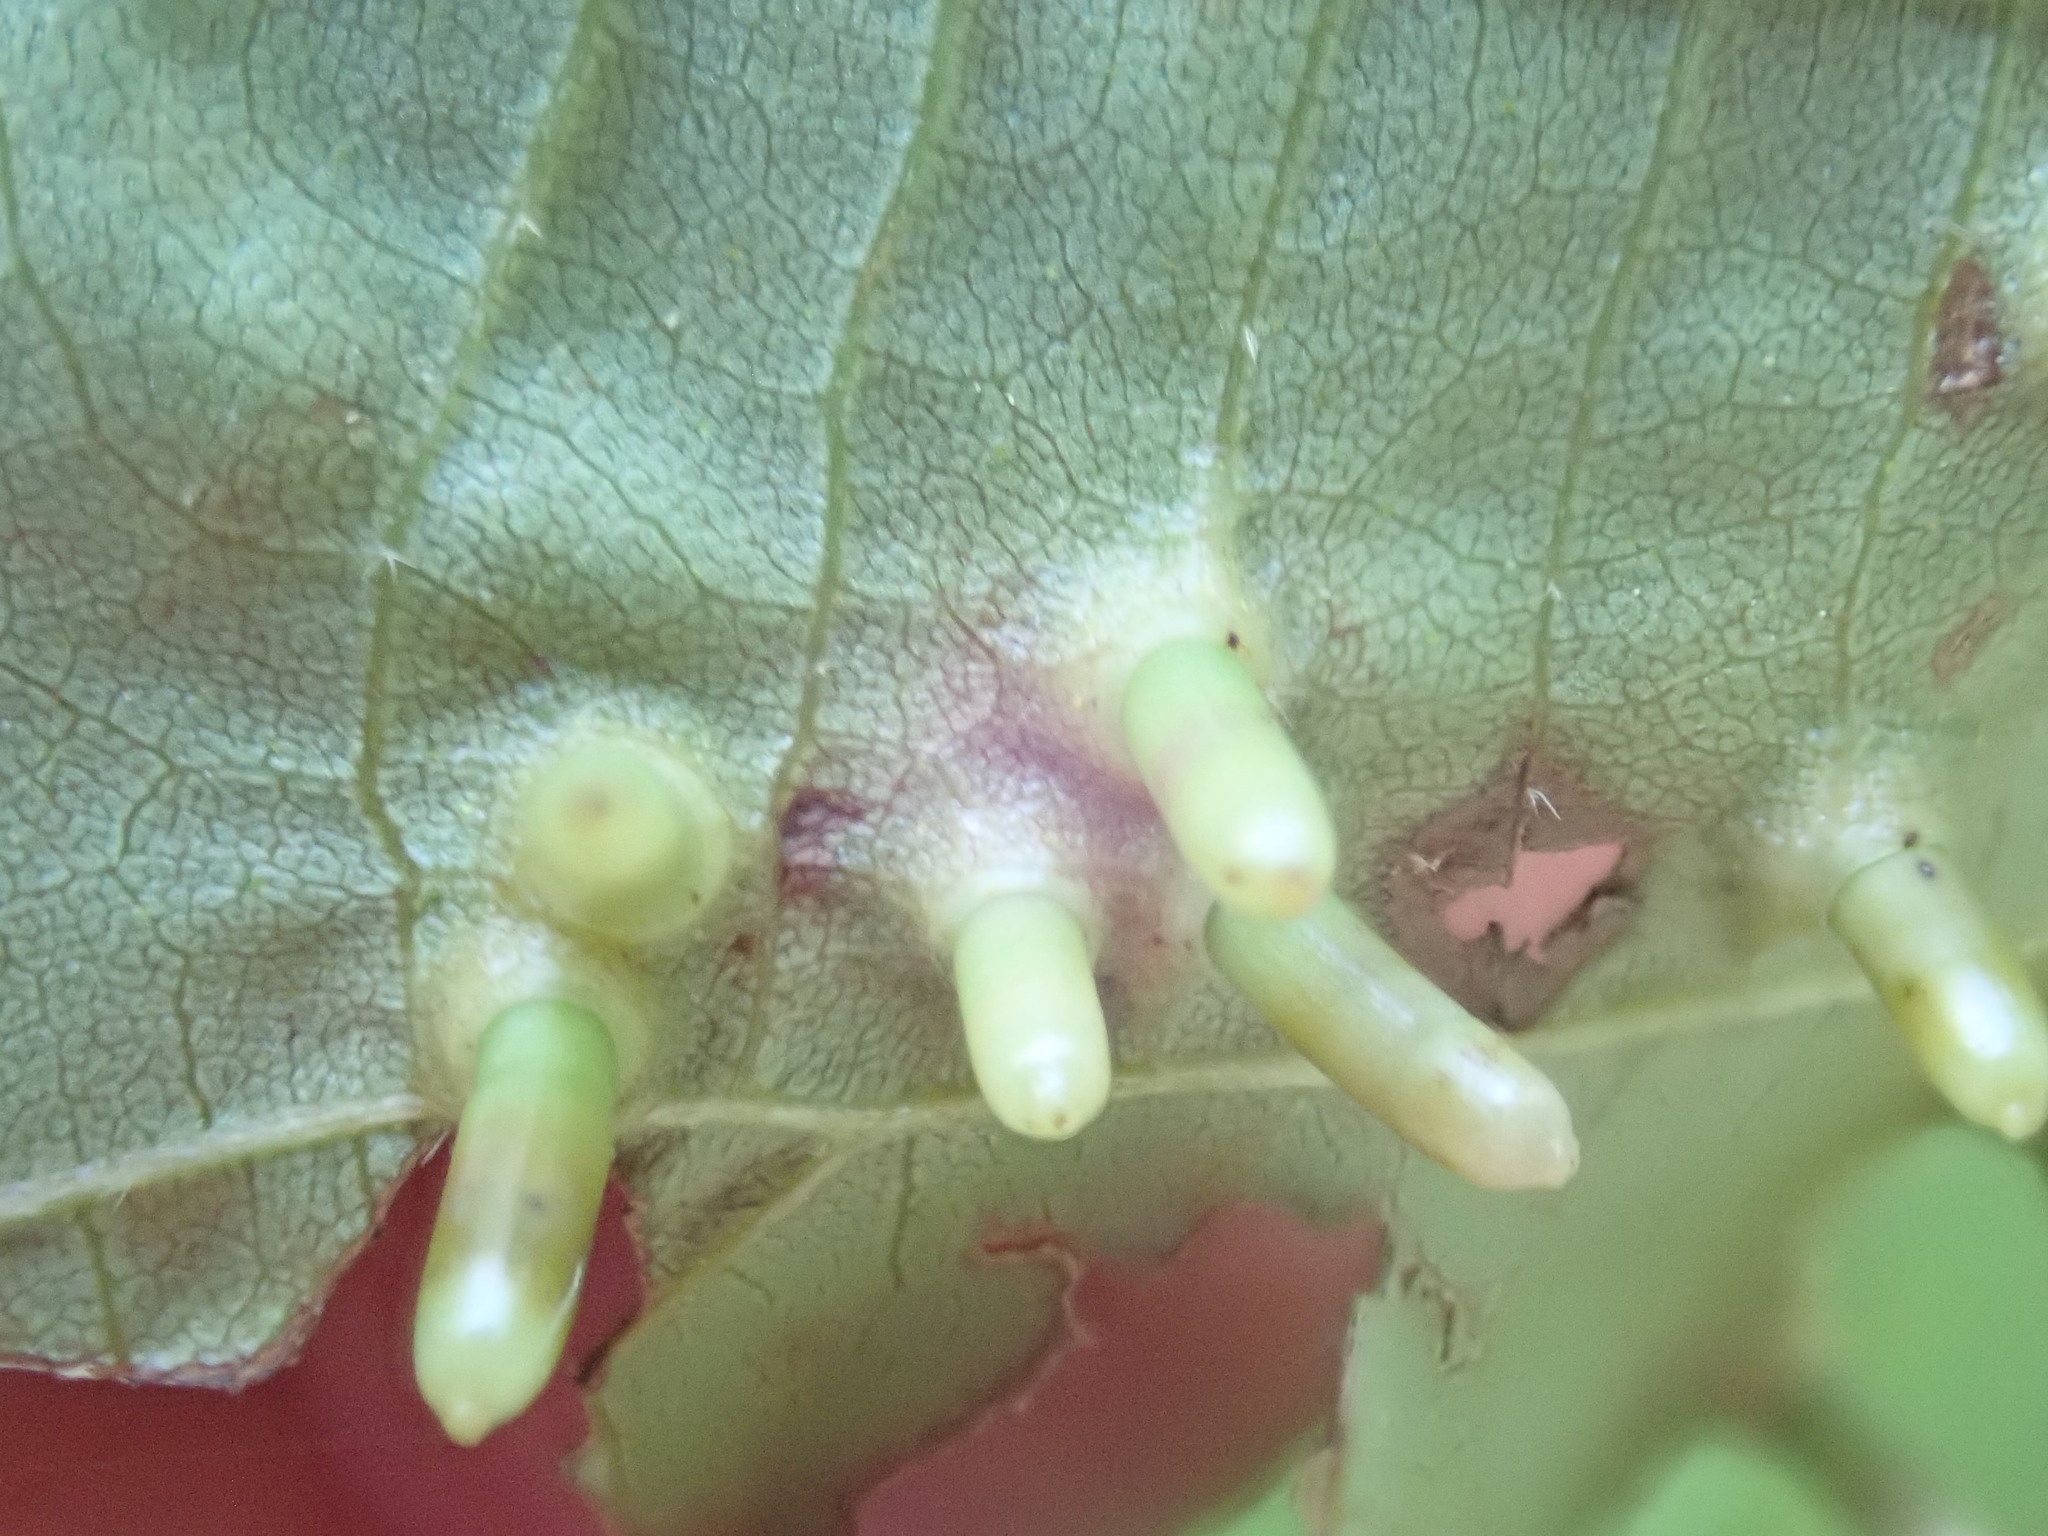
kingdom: Animalia
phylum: Arthropoda
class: Insecta
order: Diptera
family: Cecidomyiidae
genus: Caryomyia
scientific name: Caryomyia tubicola
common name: Hickory bullet gall midge
